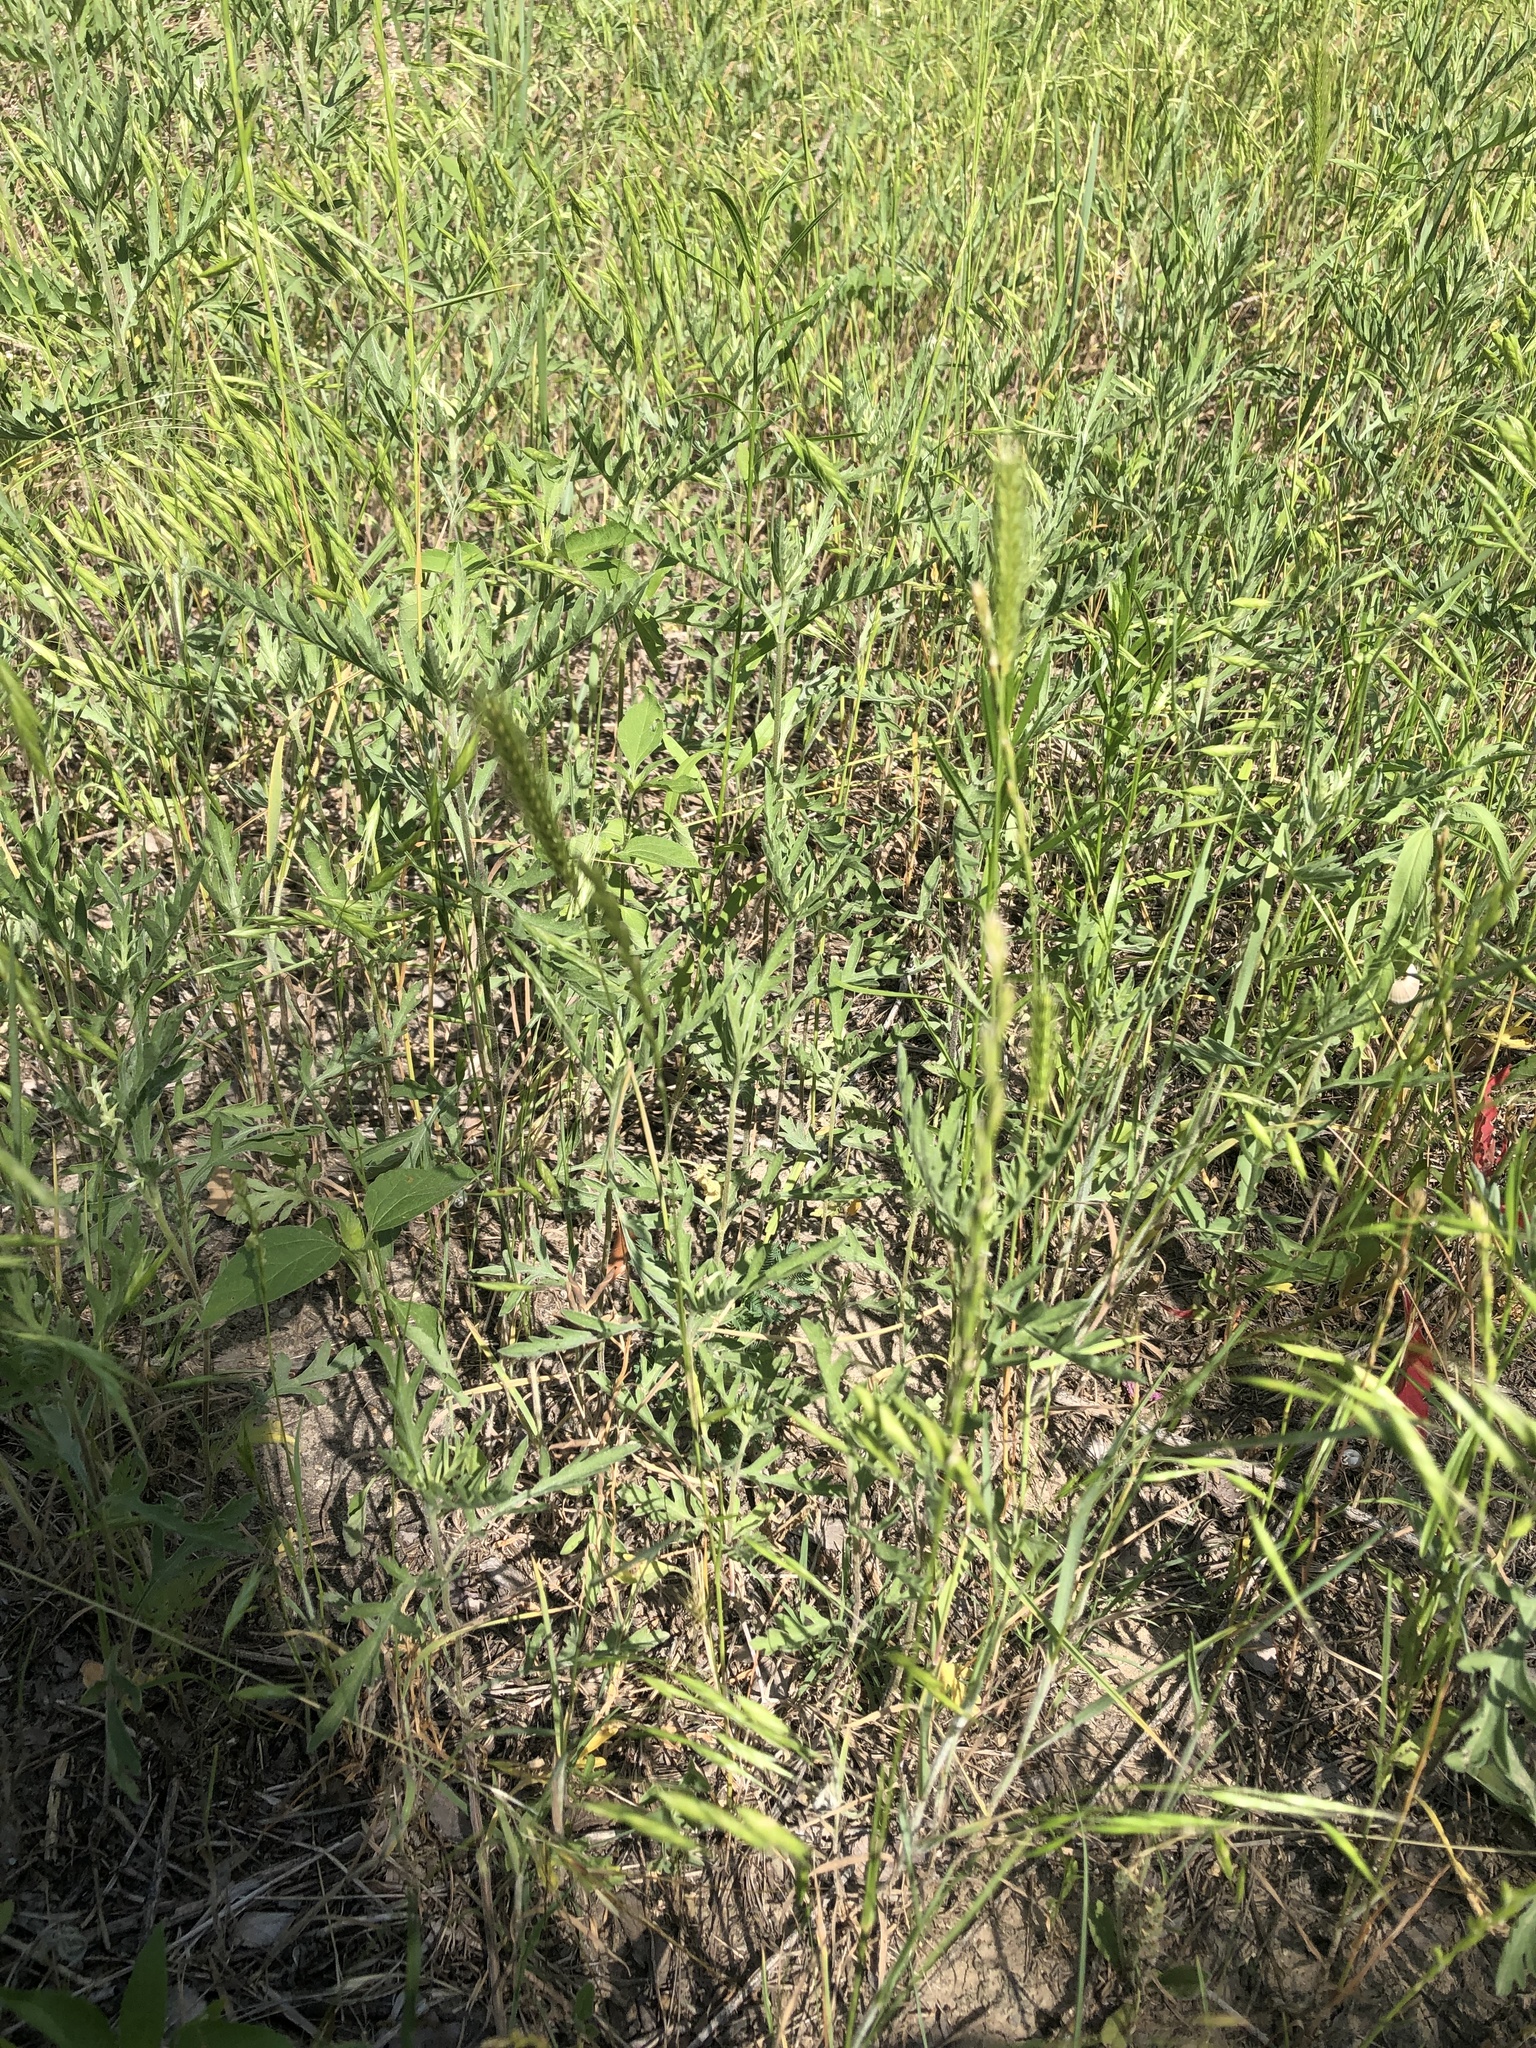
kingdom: Plantae
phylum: Tracheophyta
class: Liliopsida
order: Poales
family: Poaceae
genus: Hordeum
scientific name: Hordeum pusillum
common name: Little barley
